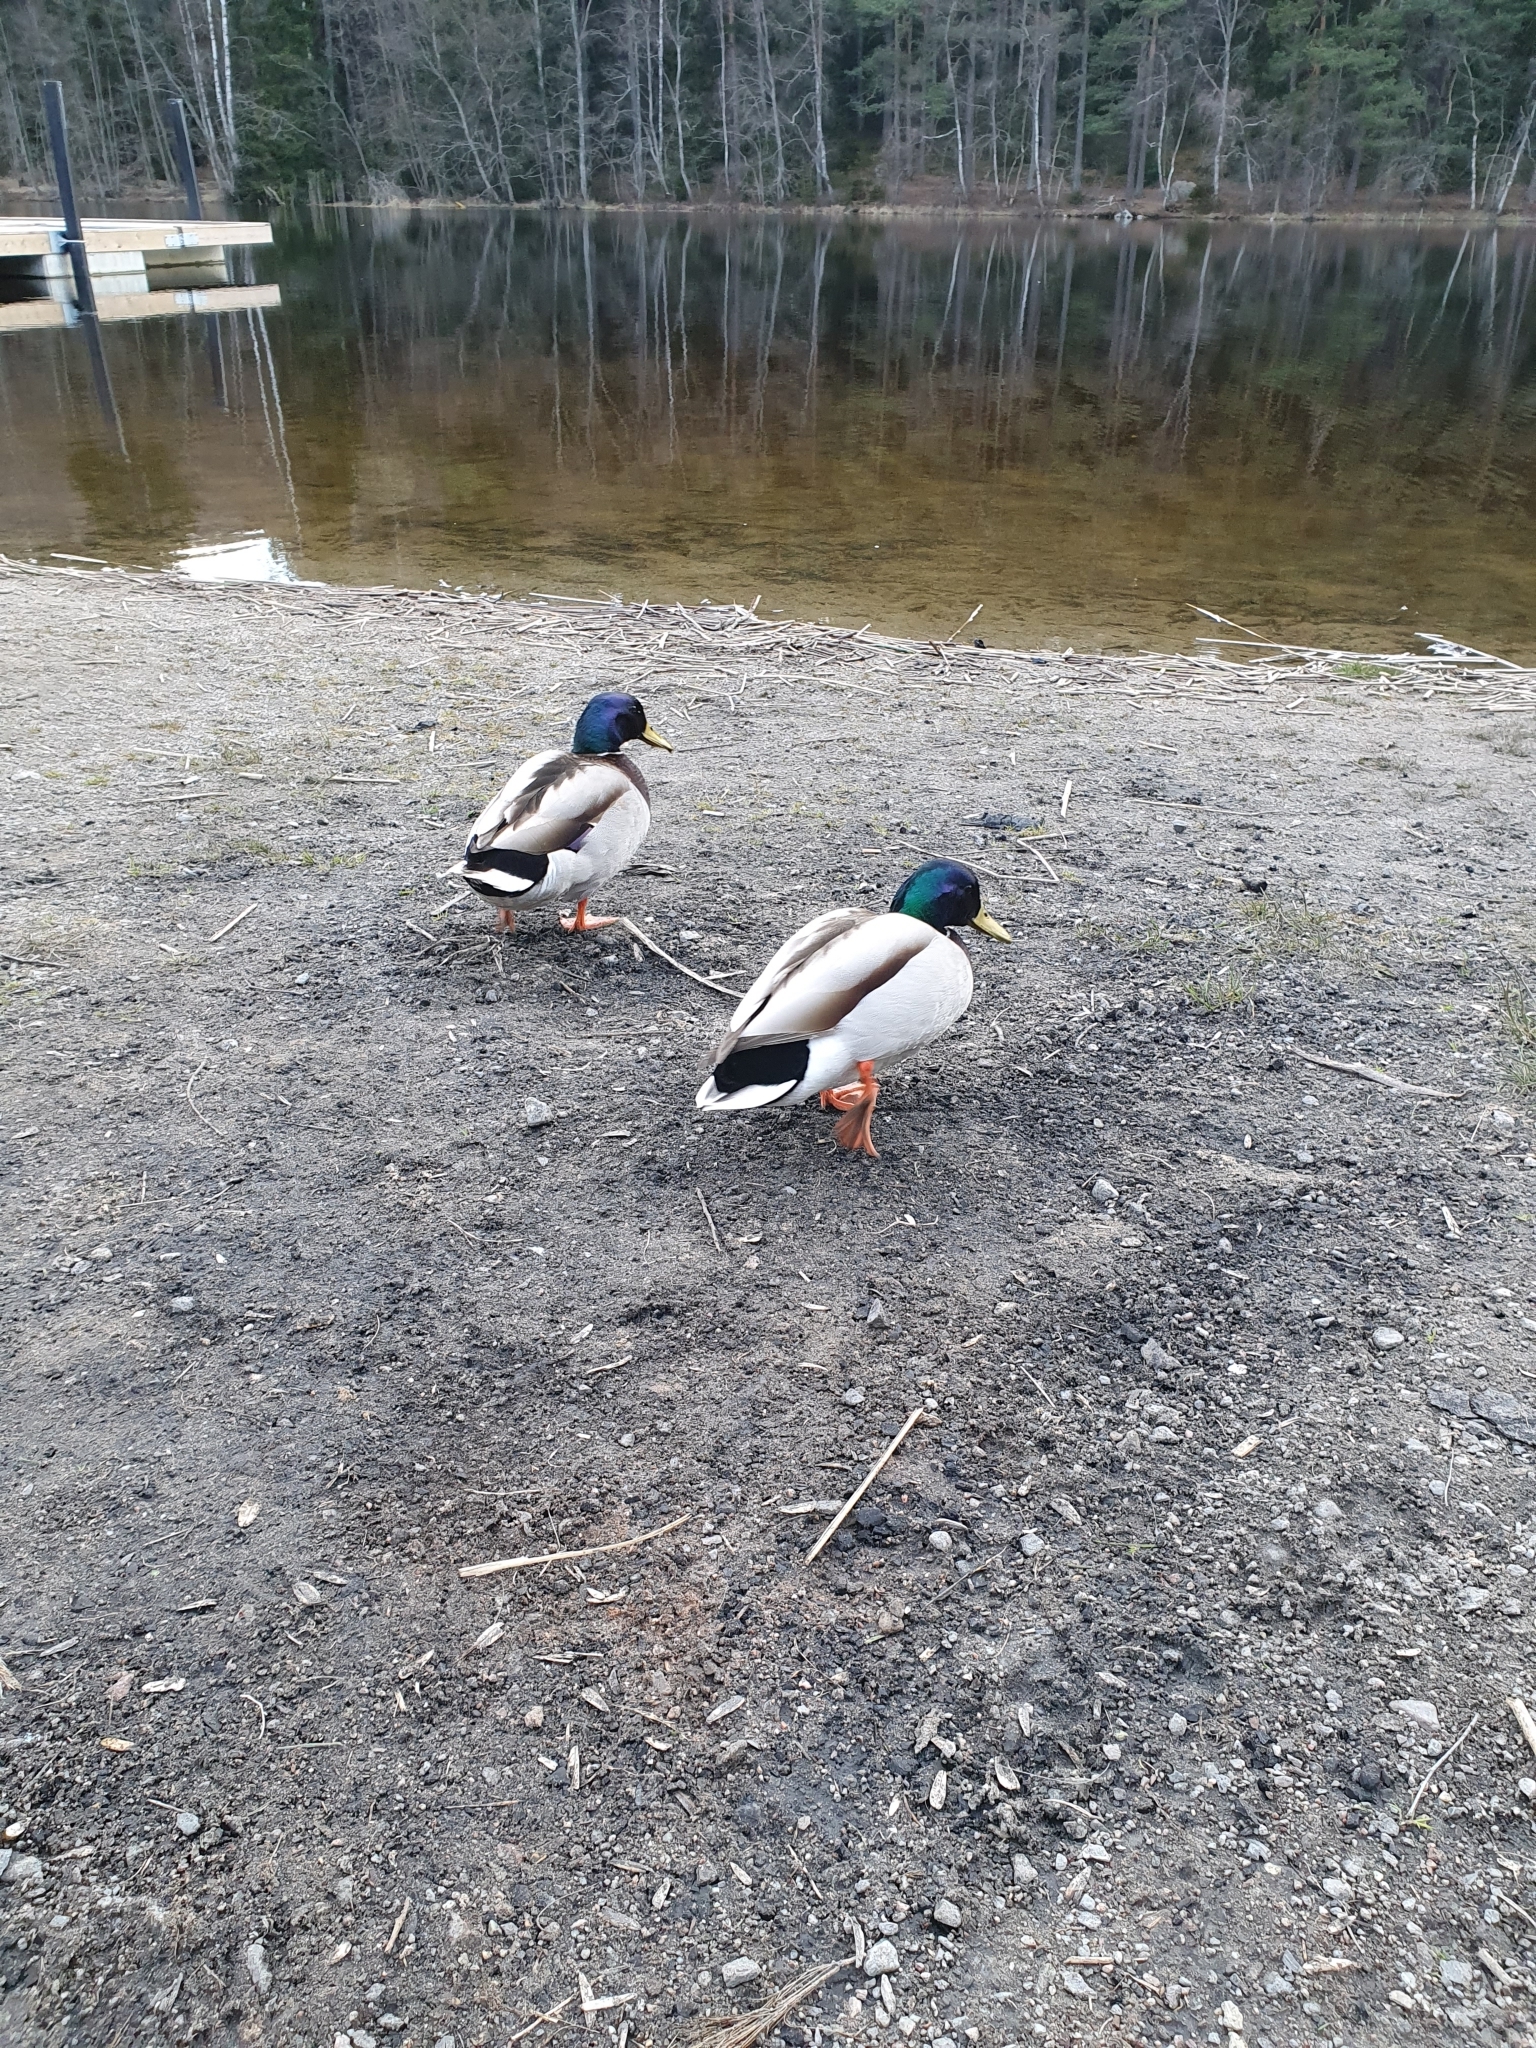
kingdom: Animalia
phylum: Chordata
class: Aves
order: Anseriformes
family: Anatidae
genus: Anas
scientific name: Anas platyrhynchos
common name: Mallard
